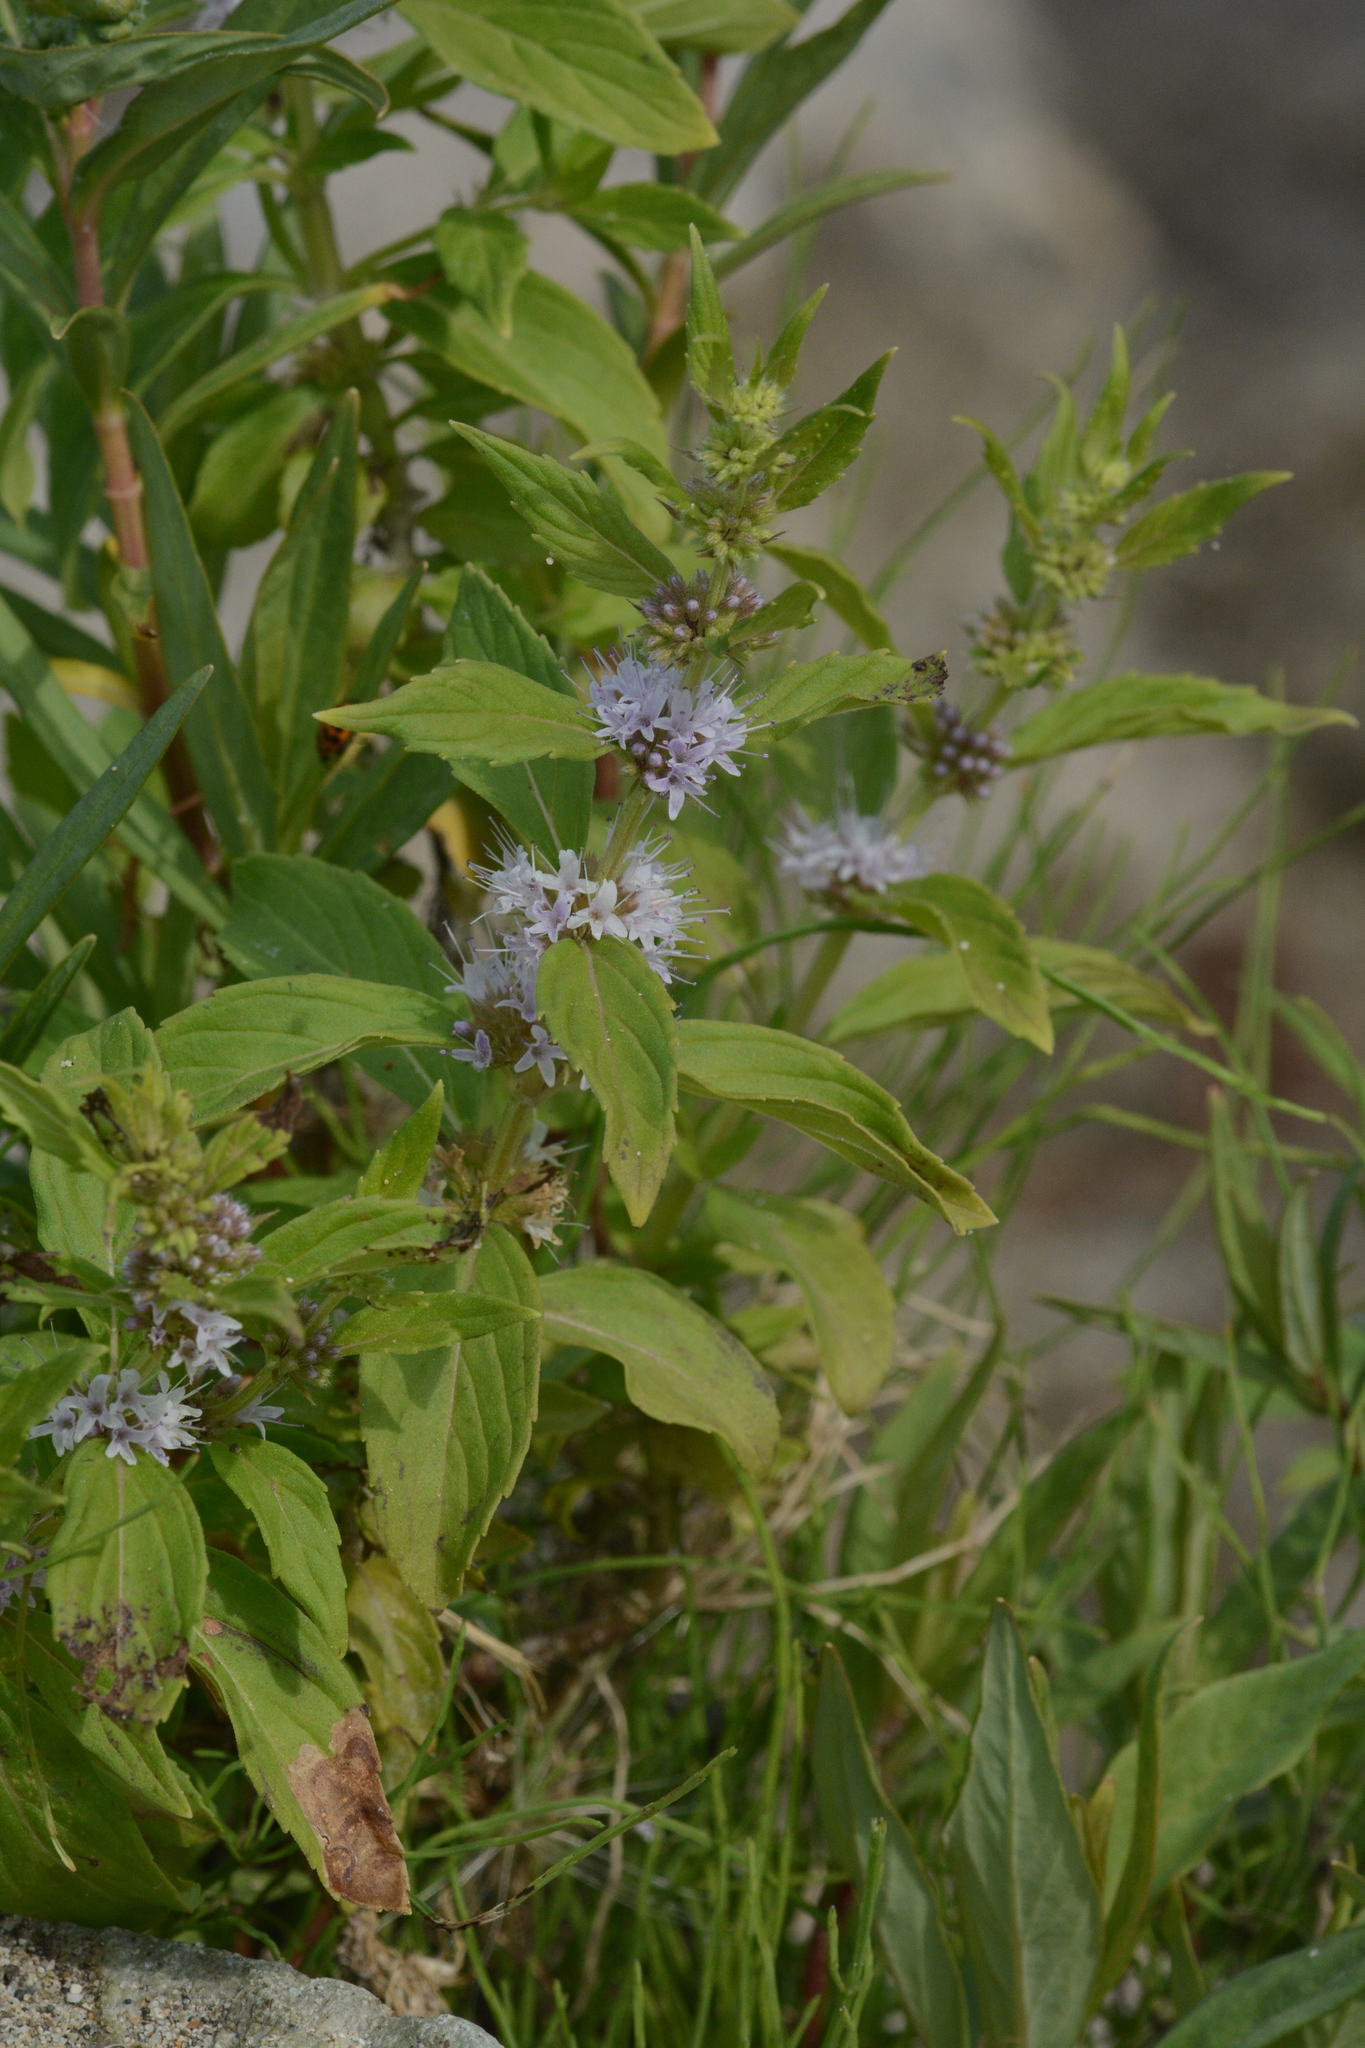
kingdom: Plantae
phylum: Tracheophyta
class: Magnoliopsida
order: Lamiales
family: Lamiaceae
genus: Mentha
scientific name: Mentha canadensis
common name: American corn mint
